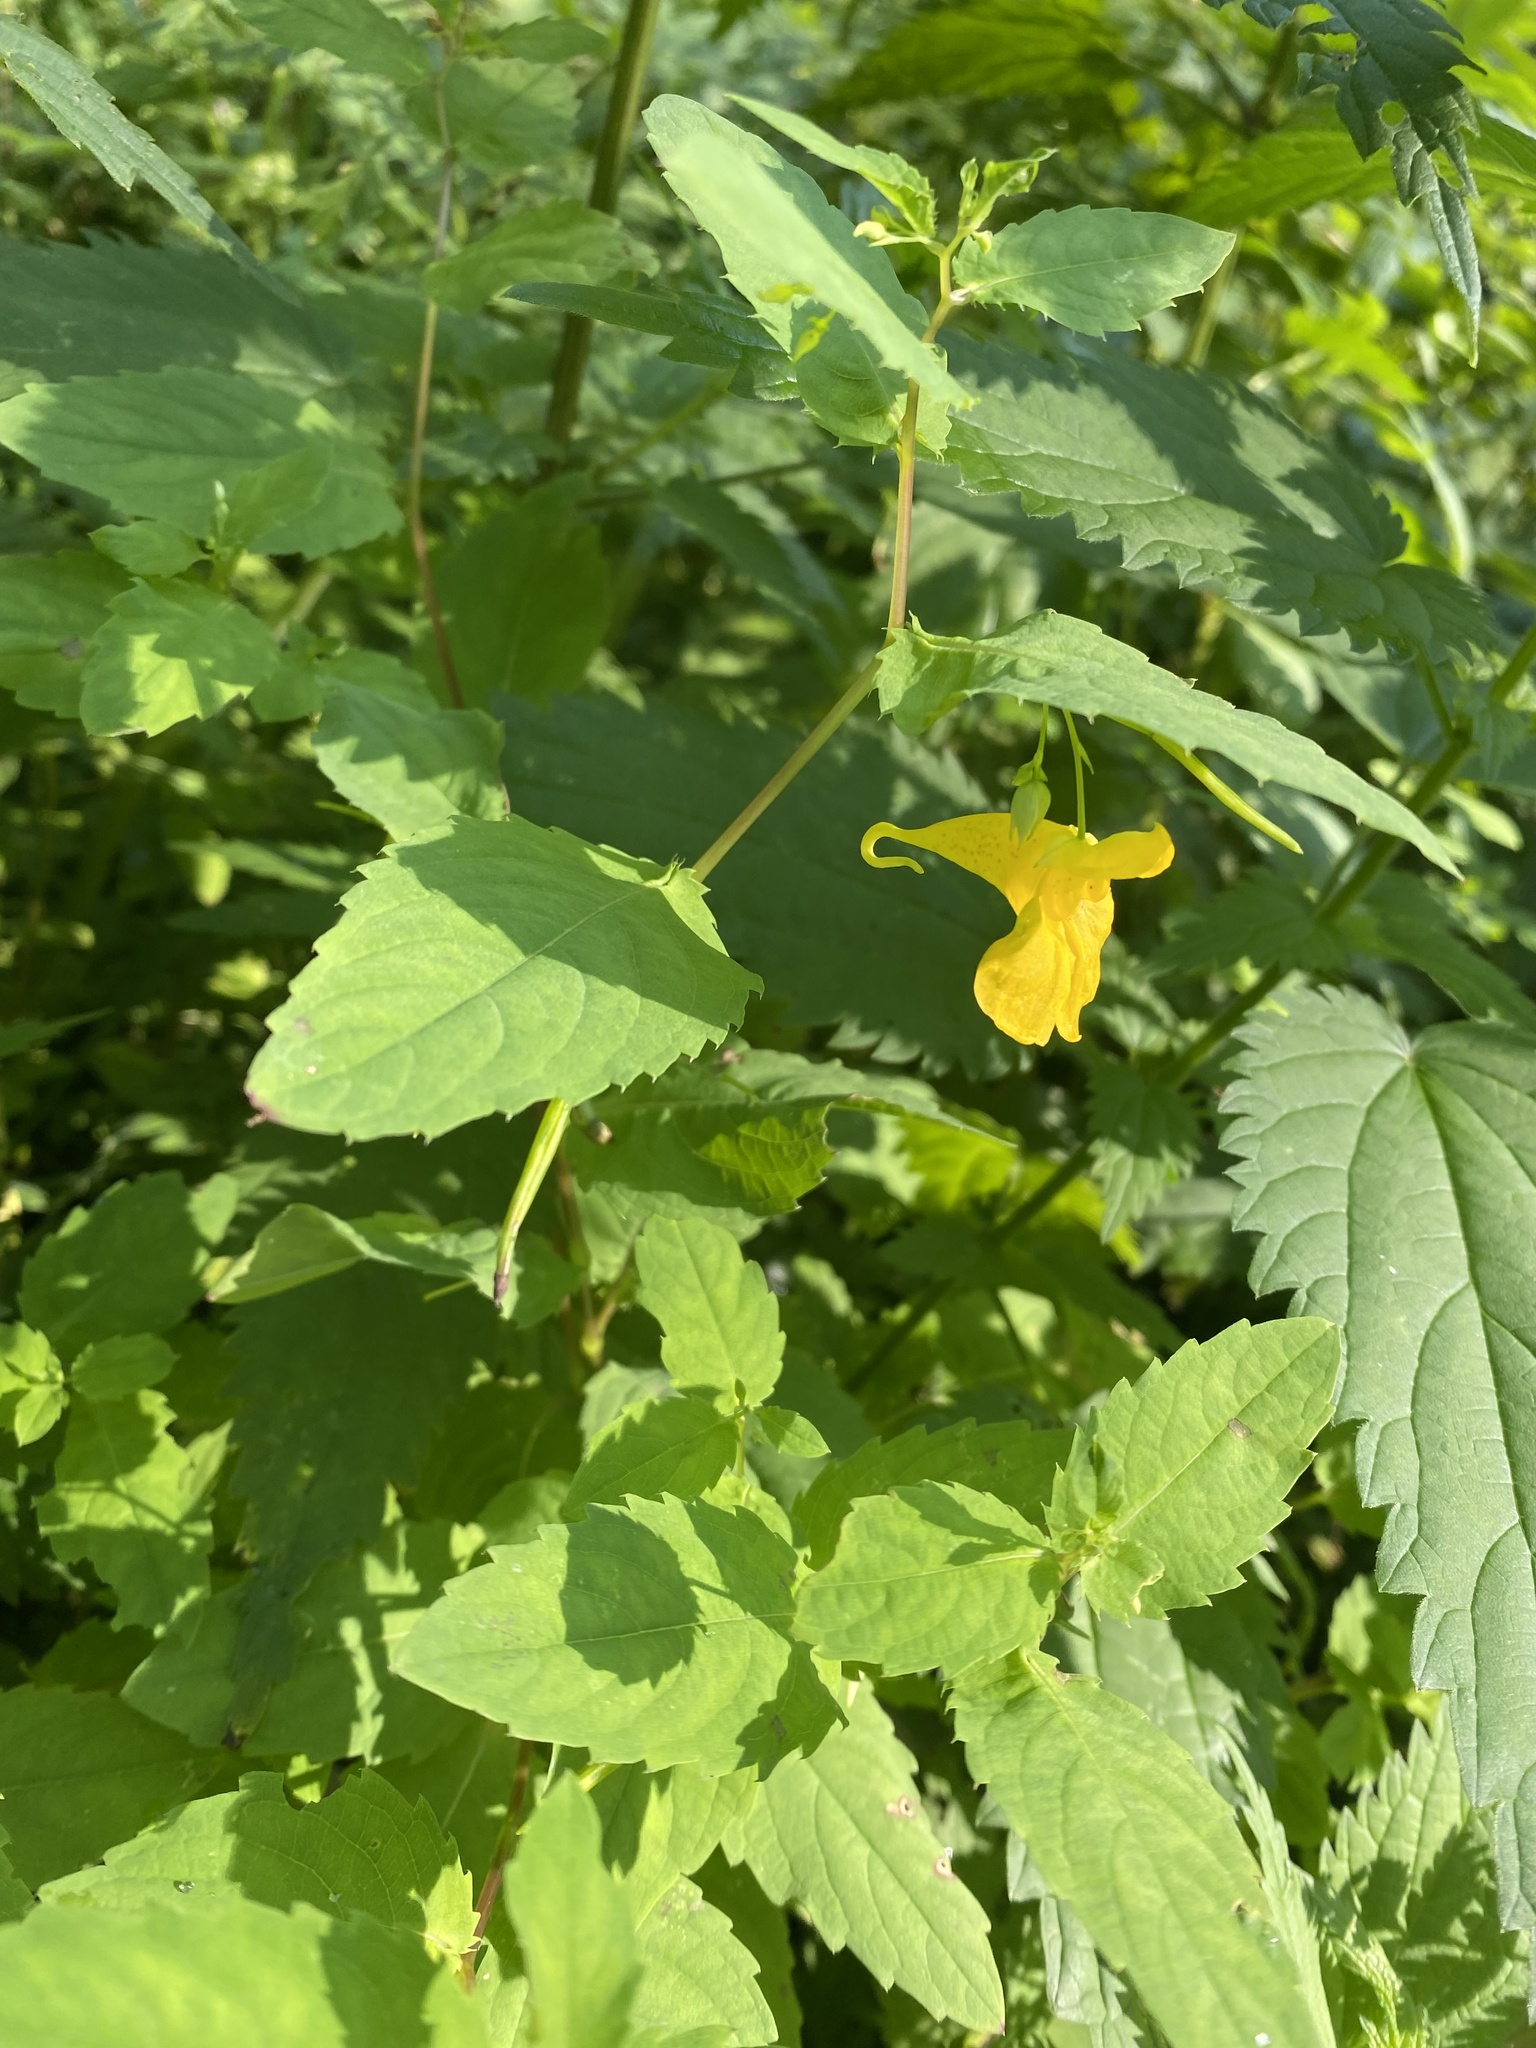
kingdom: Plantae
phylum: Tracheophyta
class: Magnoliopsida
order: Ericales
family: Balsaminaceae
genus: Impatiens
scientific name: Impatiens noli-tangere
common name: Touch-me-not balsam
